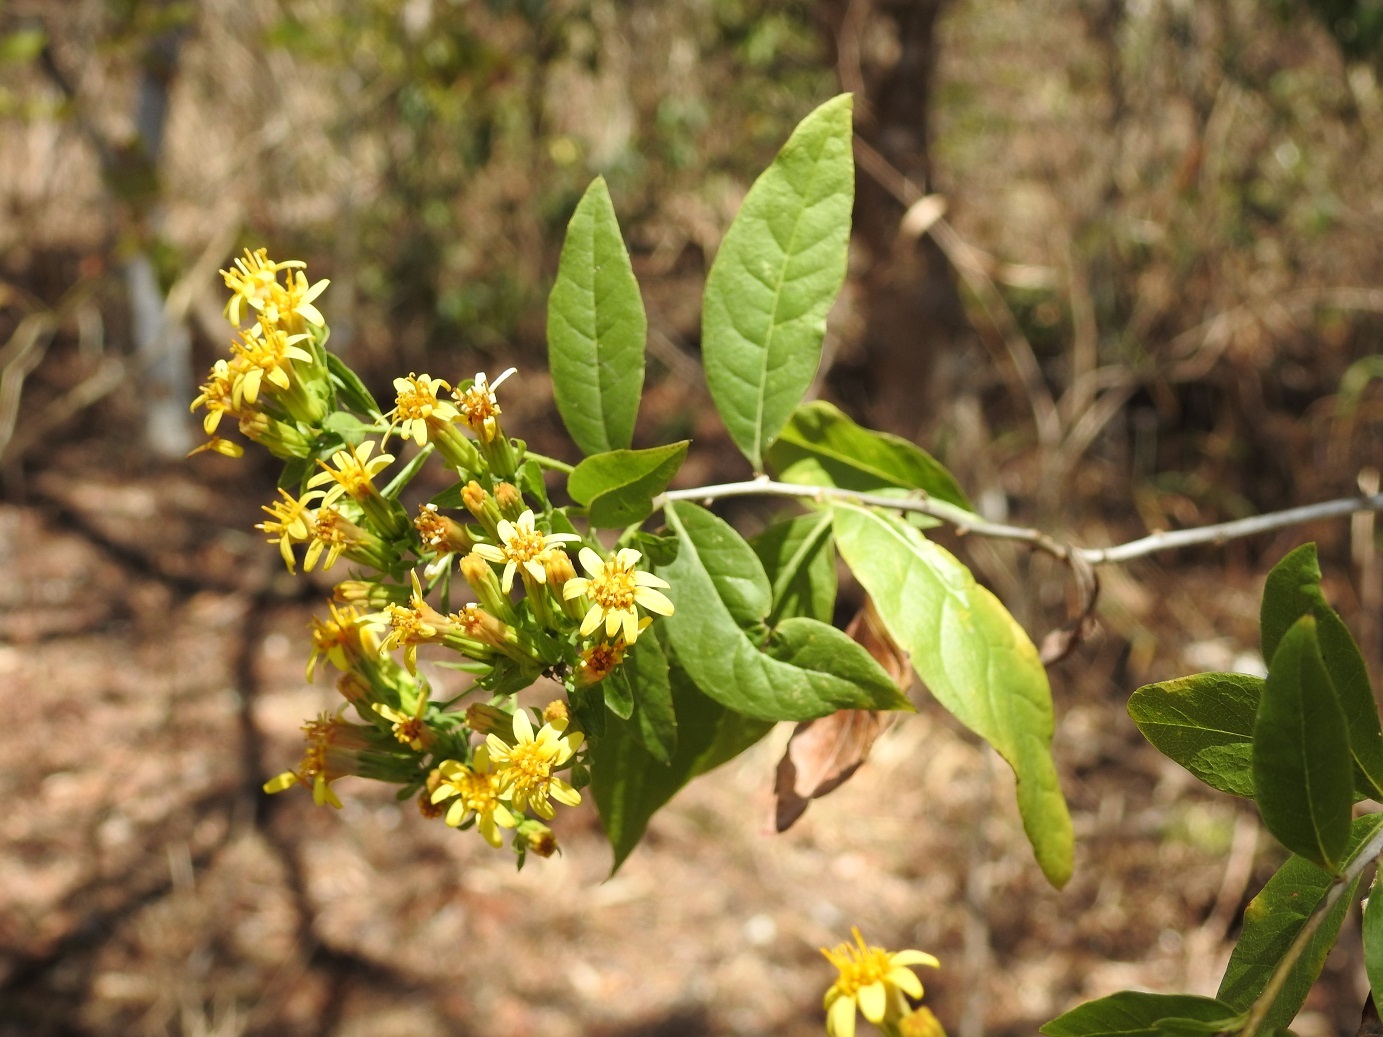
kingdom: Plantae
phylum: Tracheophyta
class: Magnoliopsida
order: Asterales
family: Asteraceae
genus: Trixis
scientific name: Trixis inula
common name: Tropical threefold
